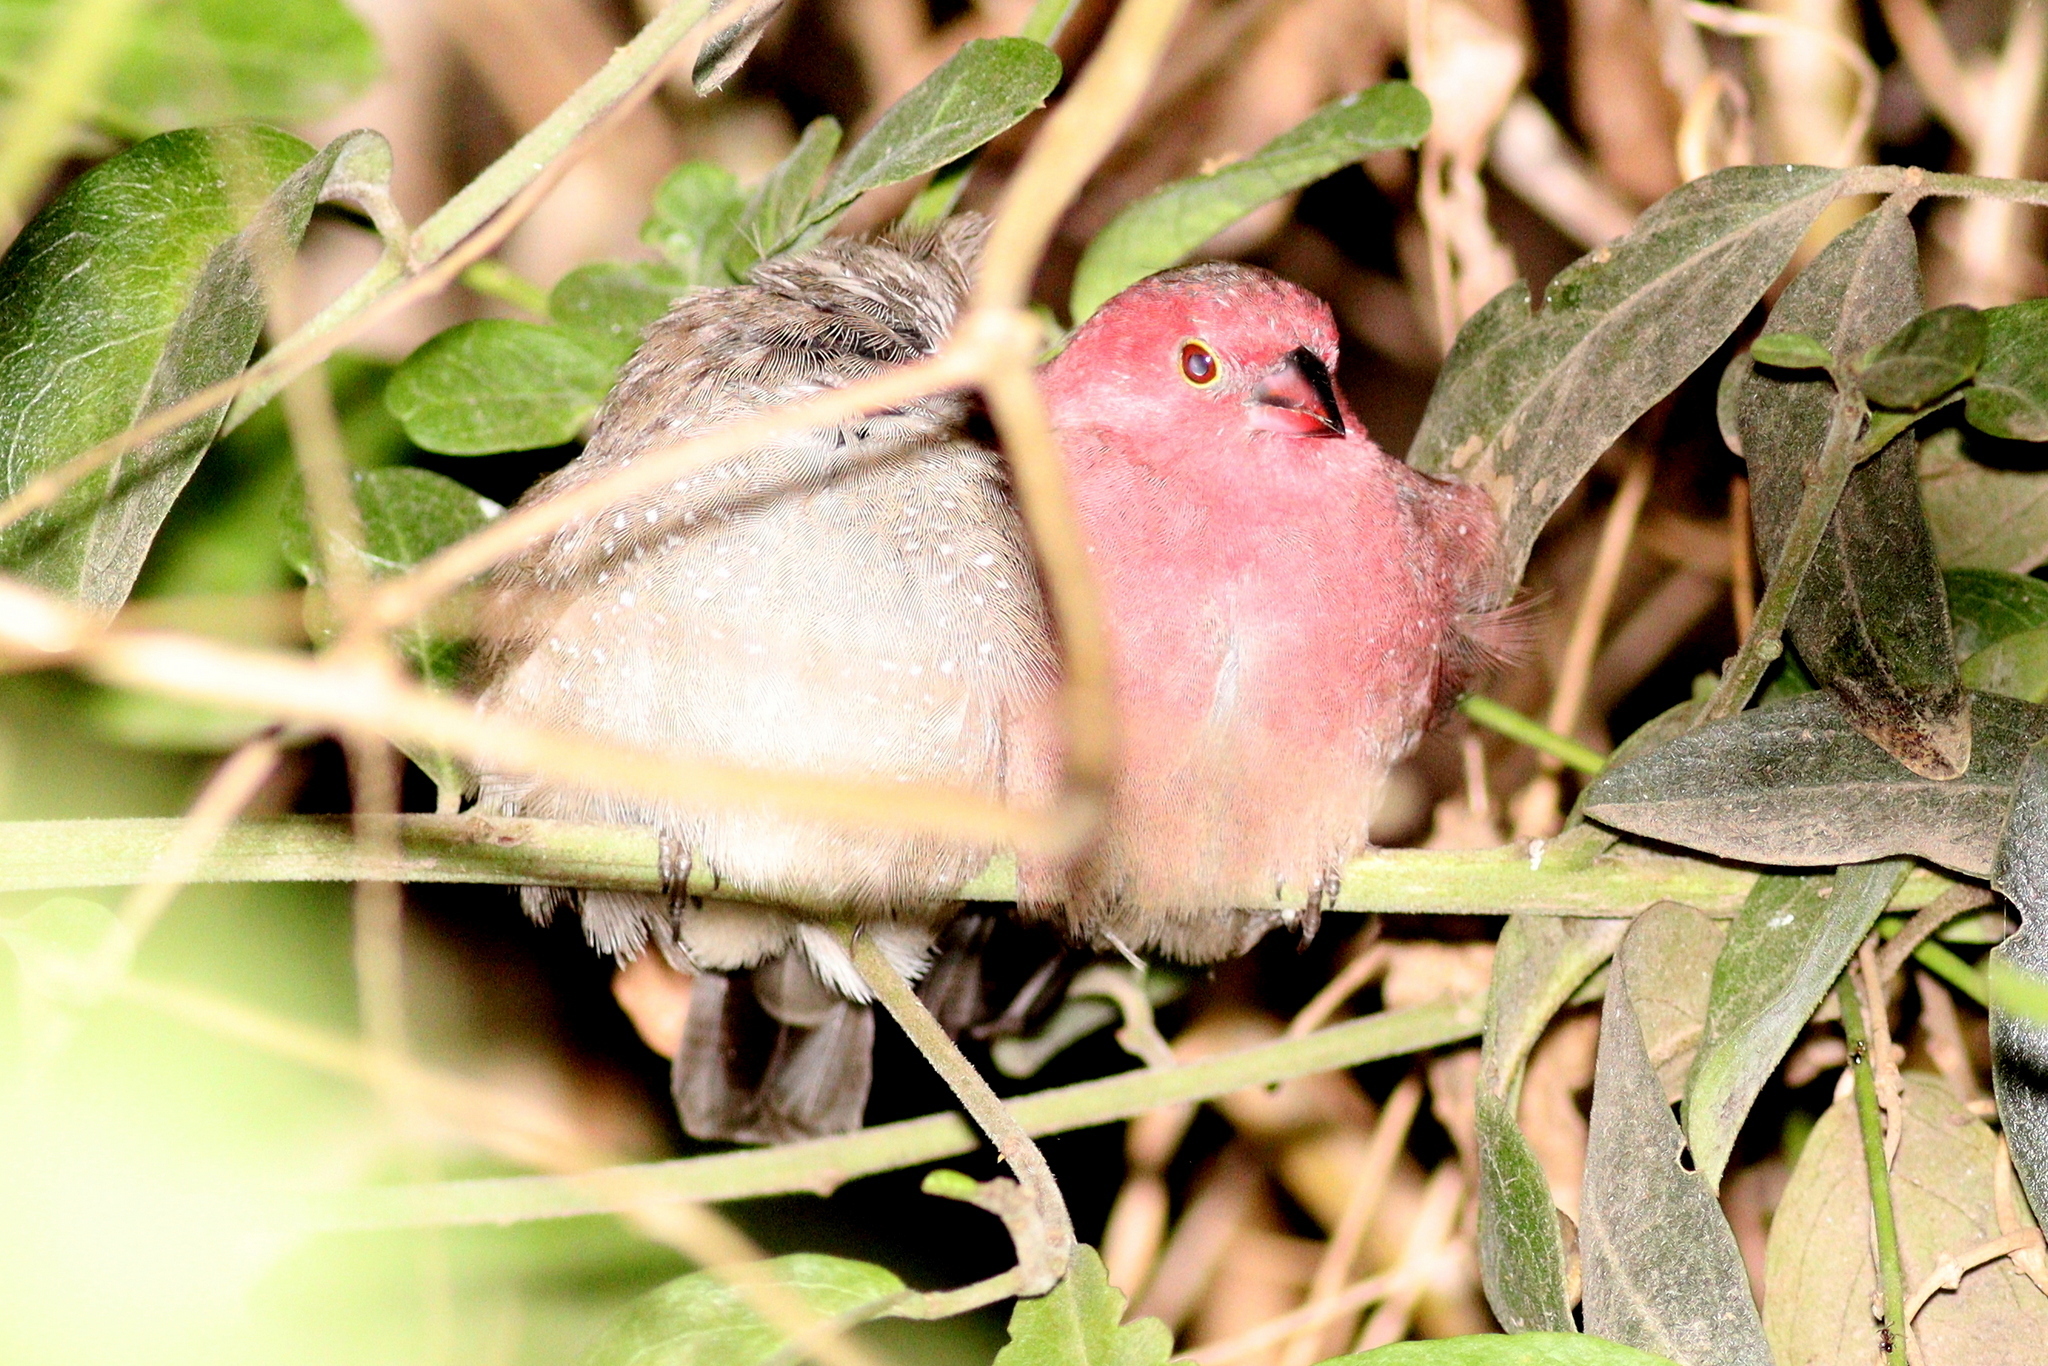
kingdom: Animalia
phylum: Chordata
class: Aves
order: Passeriformes
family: Estrildidae
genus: Lagonosticta
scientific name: Lagonosticta senegala
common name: Red-billed firefinch
